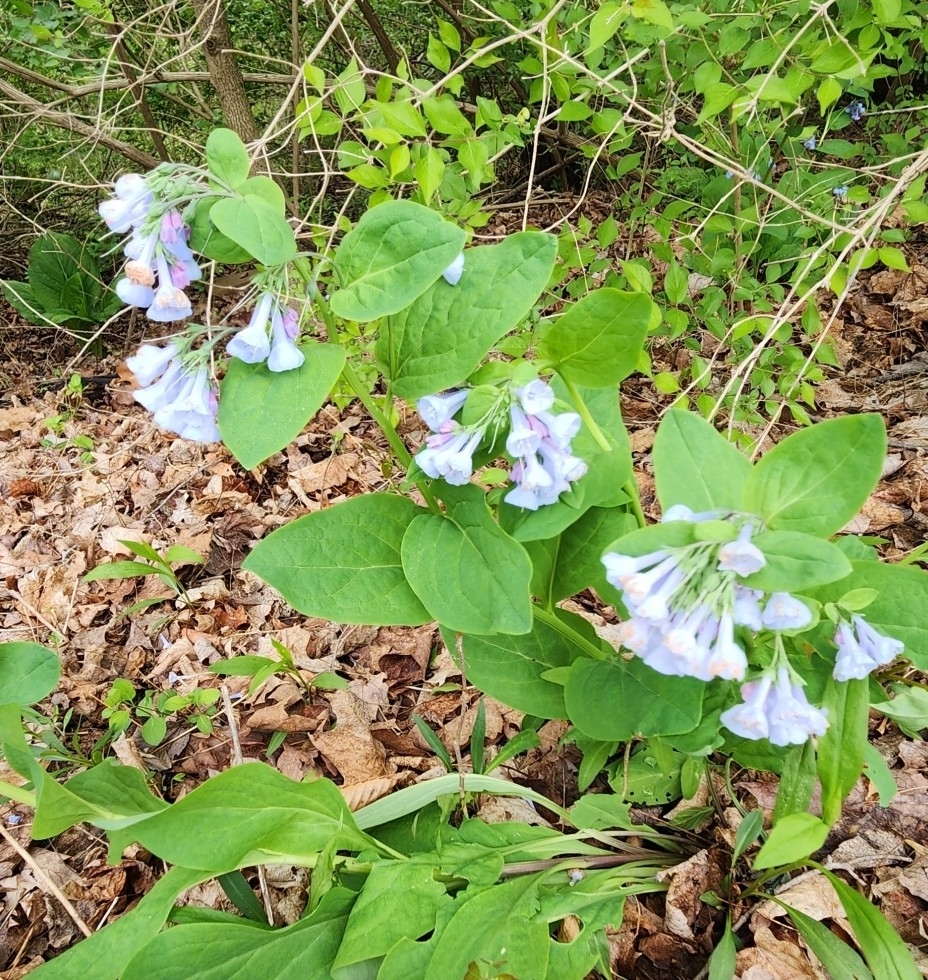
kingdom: Plantae
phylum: Tracheophyta
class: Magnoliopsida
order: Boraginales
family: Boraginaceae
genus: Mertensia
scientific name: Mertensia virginica
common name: Virginia bluebells
